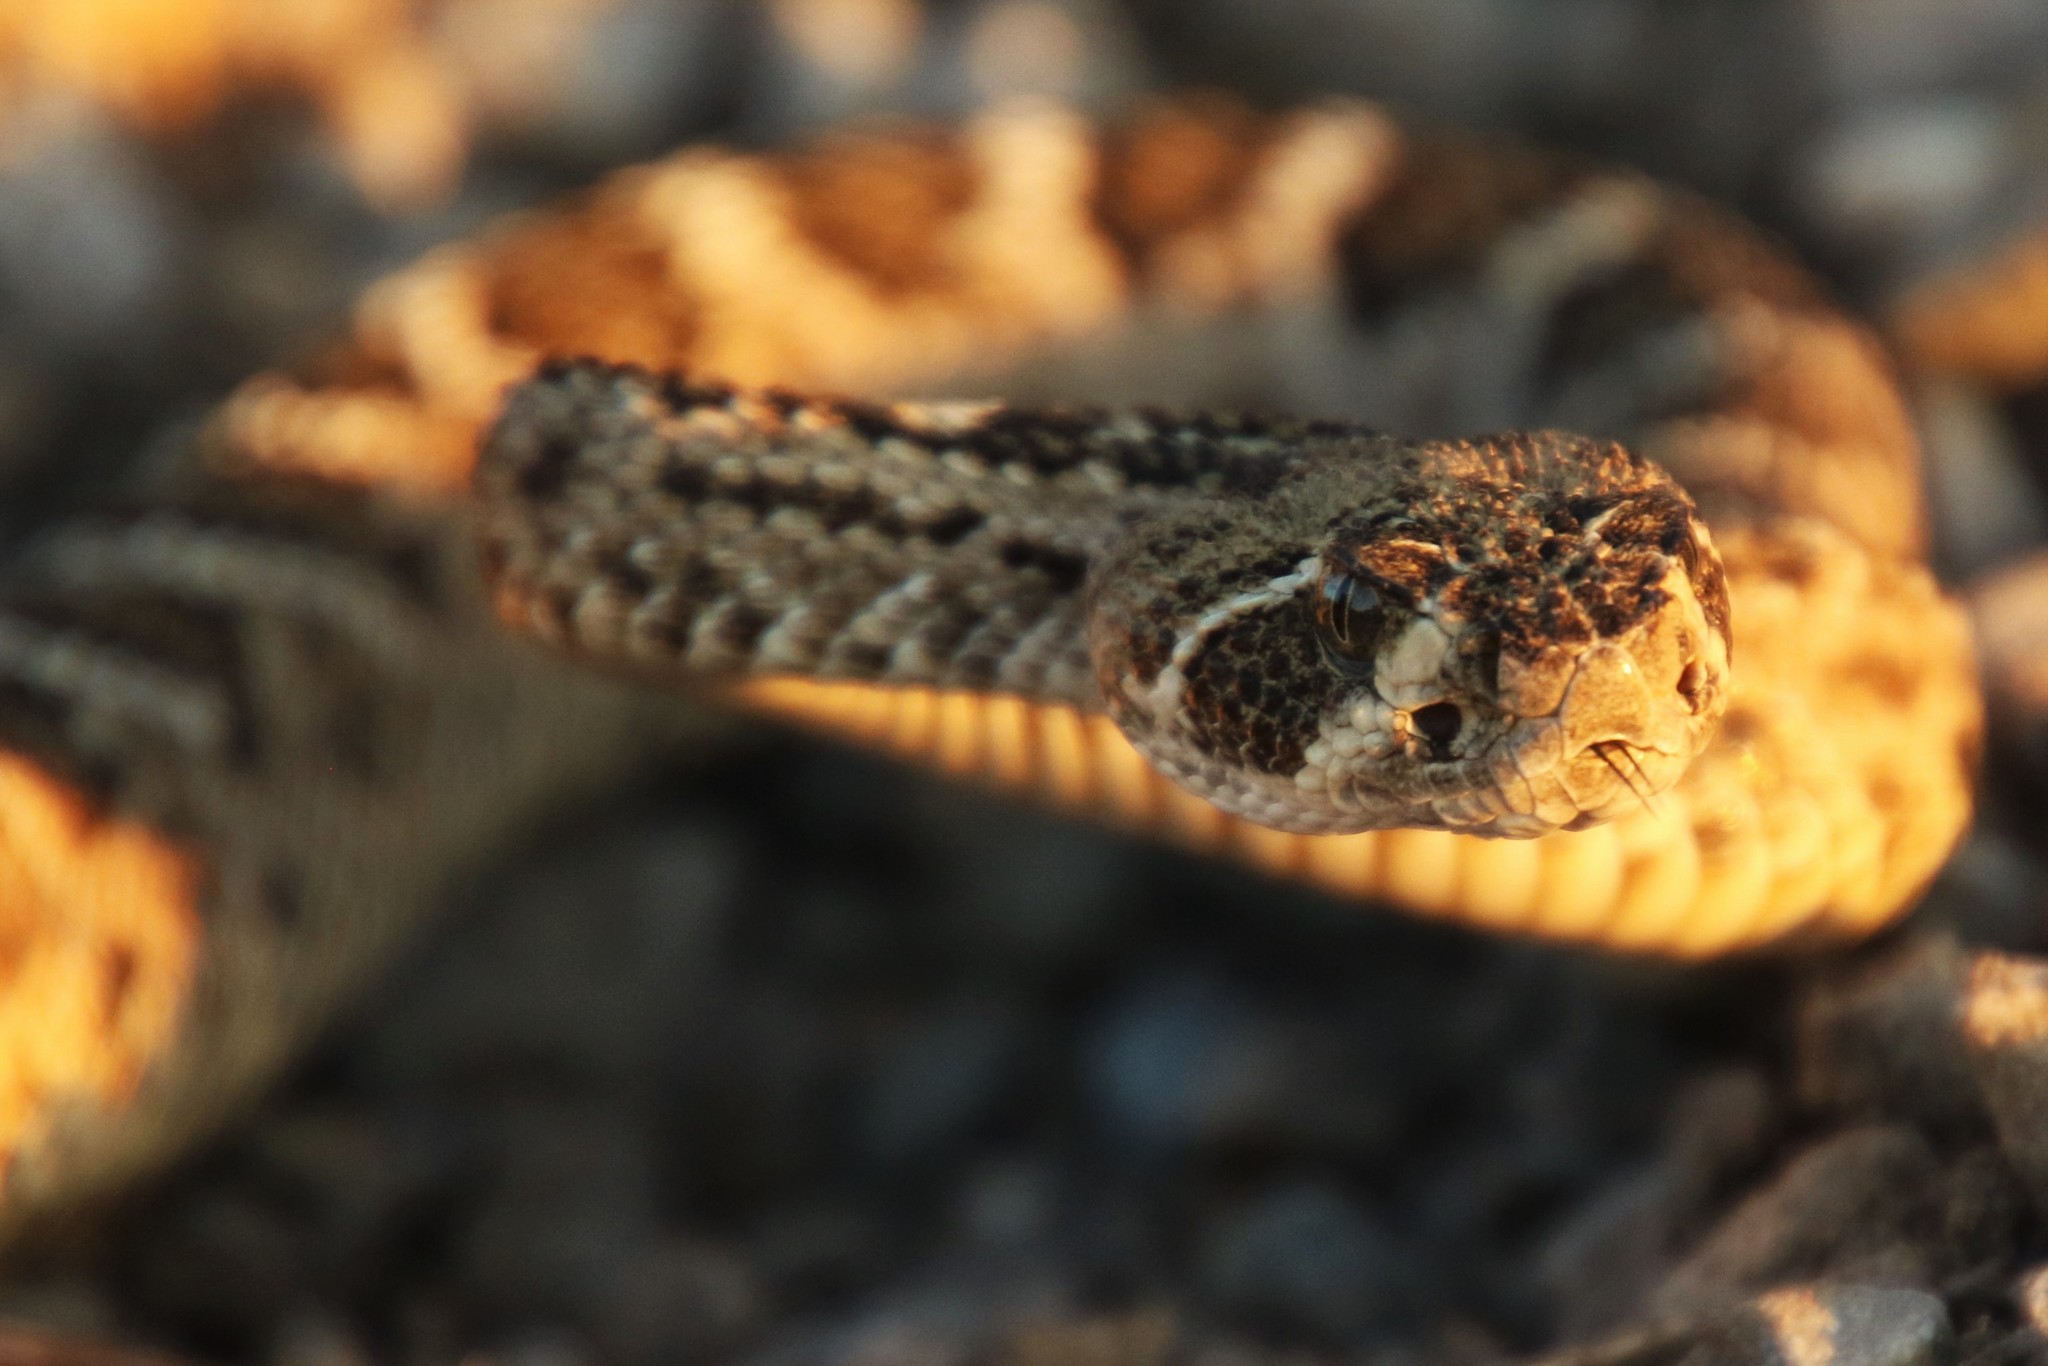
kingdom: Animalia
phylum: Chordata
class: Squamata
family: Viperidae
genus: Crotalus
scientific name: Crotalus atrox
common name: Western diamond-backed rattlesnake
